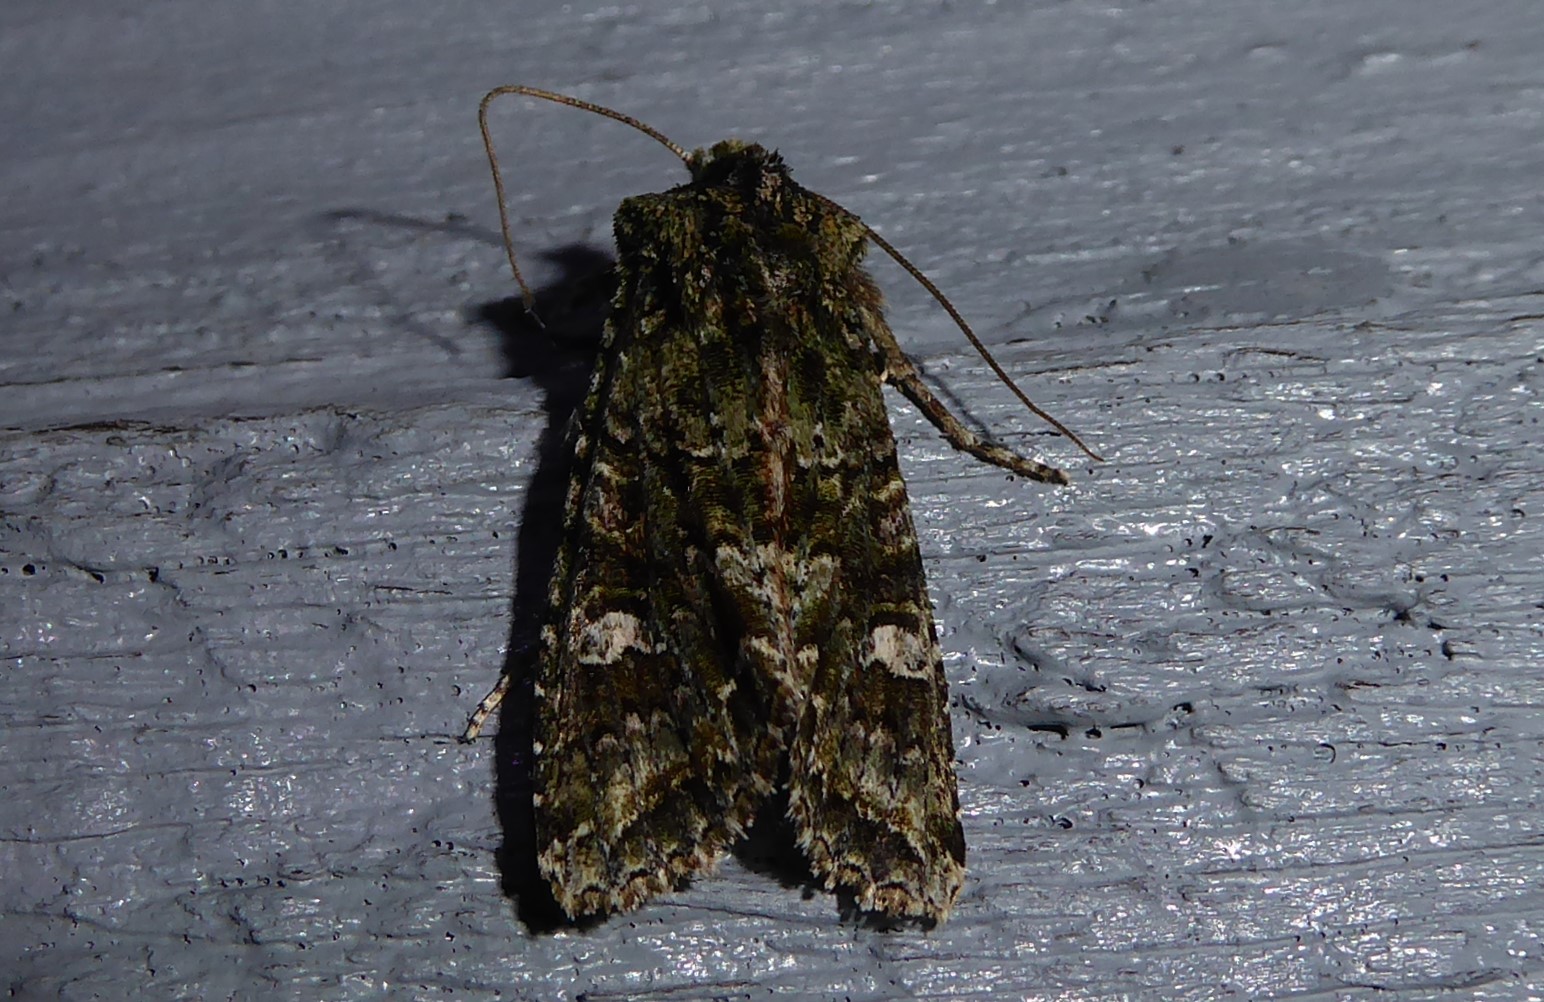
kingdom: Animalia
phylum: Arthropoda
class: Insecta
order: Lepidoptera
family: Noctuidae
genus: Ichneutica
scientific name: Ichneutica
